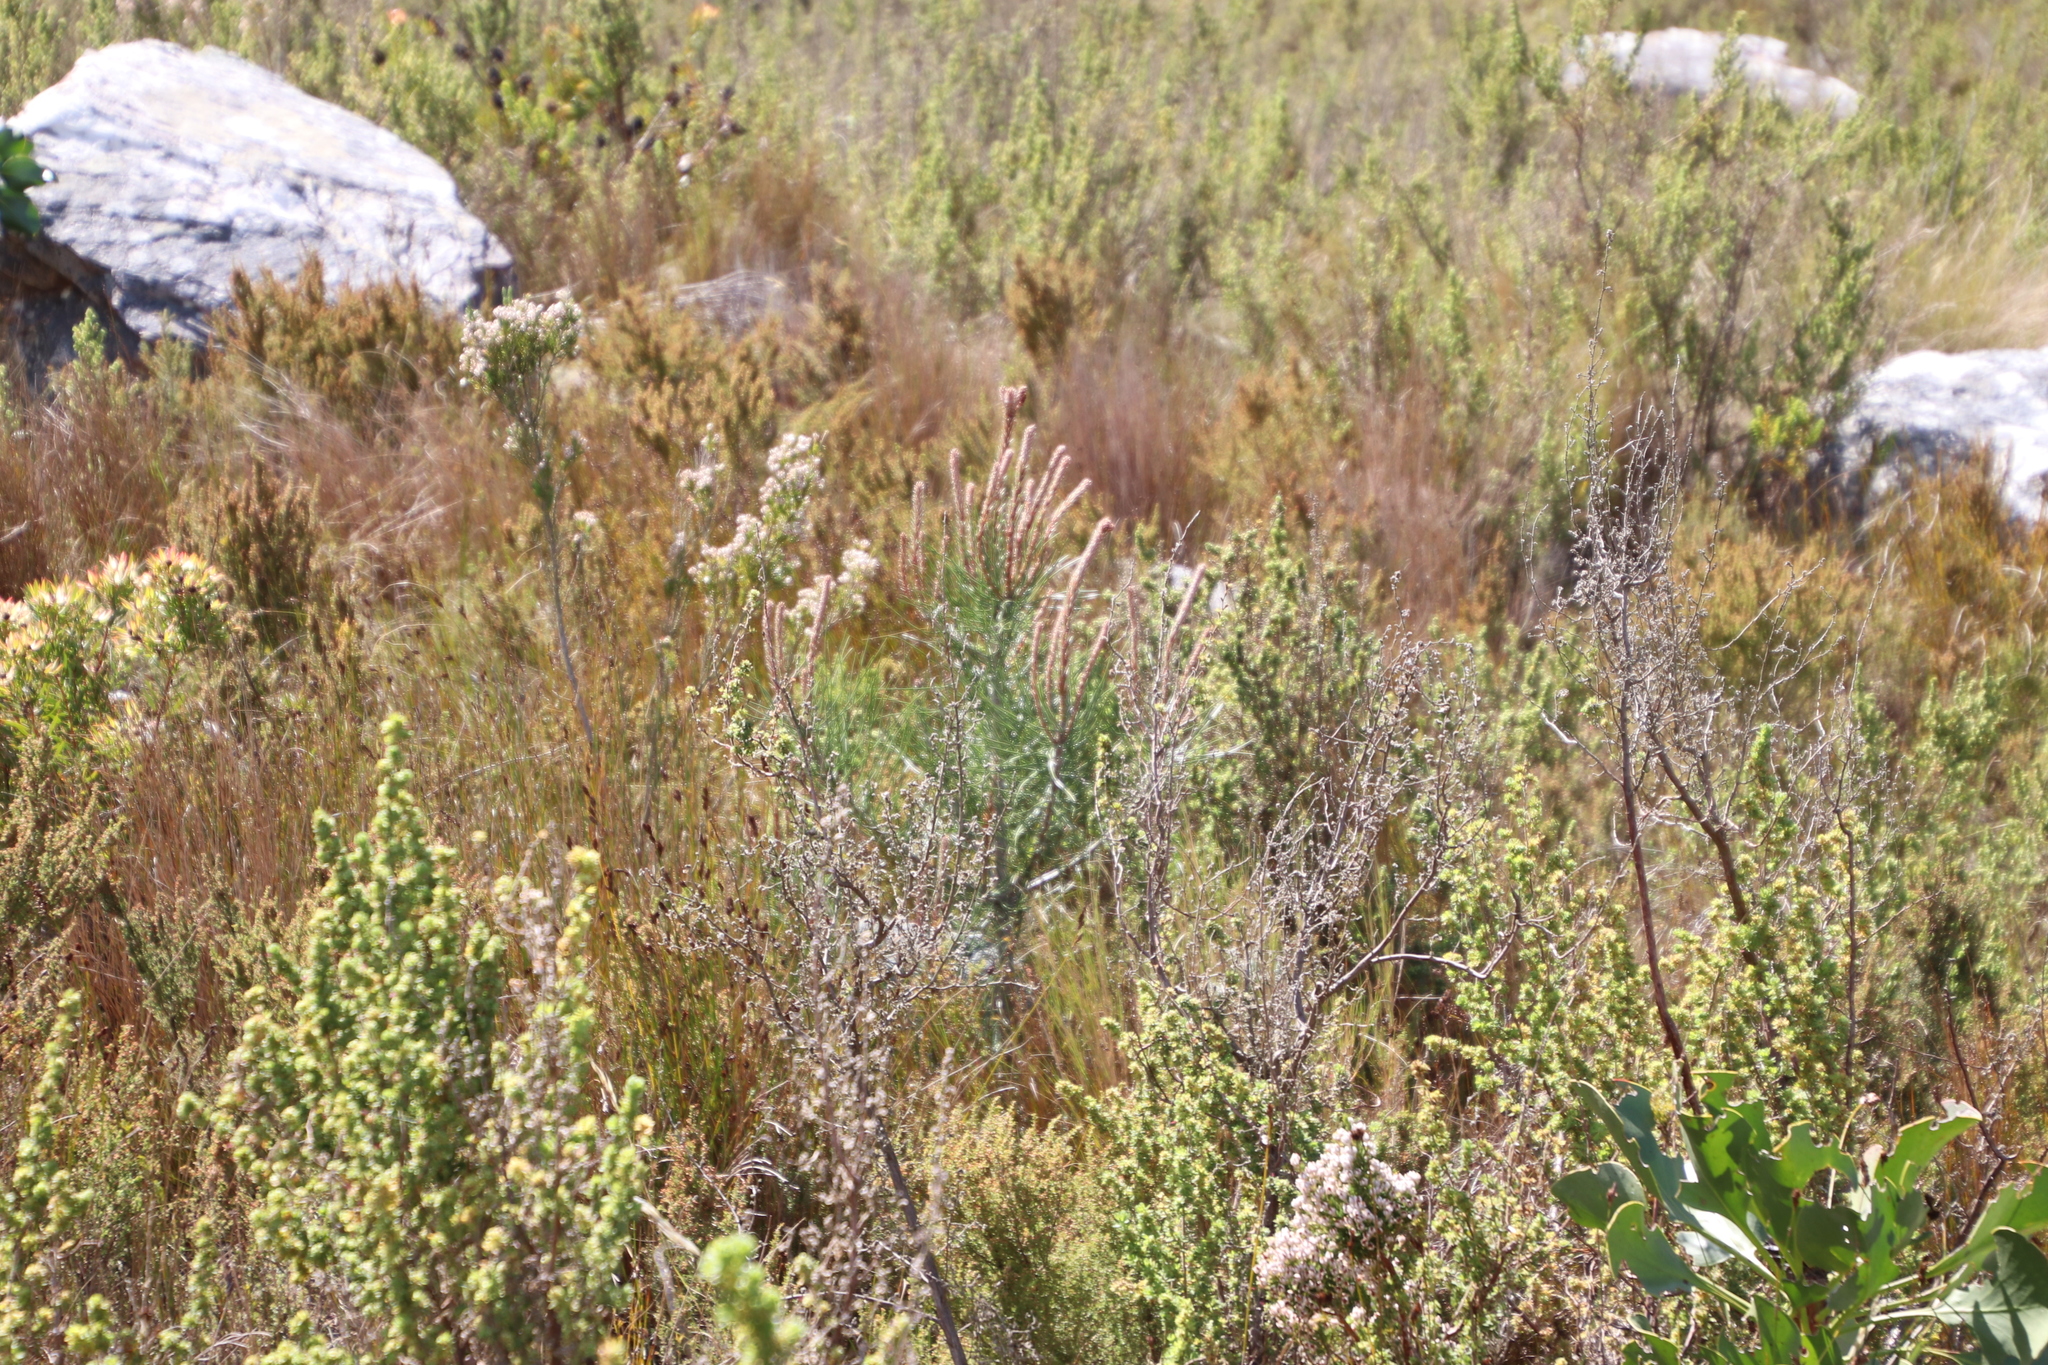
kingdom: Plantae
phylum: Tracheophyta
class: Pinopsida
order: Pinales
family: Pinaceae
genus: Pinus
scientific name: Pinus pinaster
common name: Maritime pine
